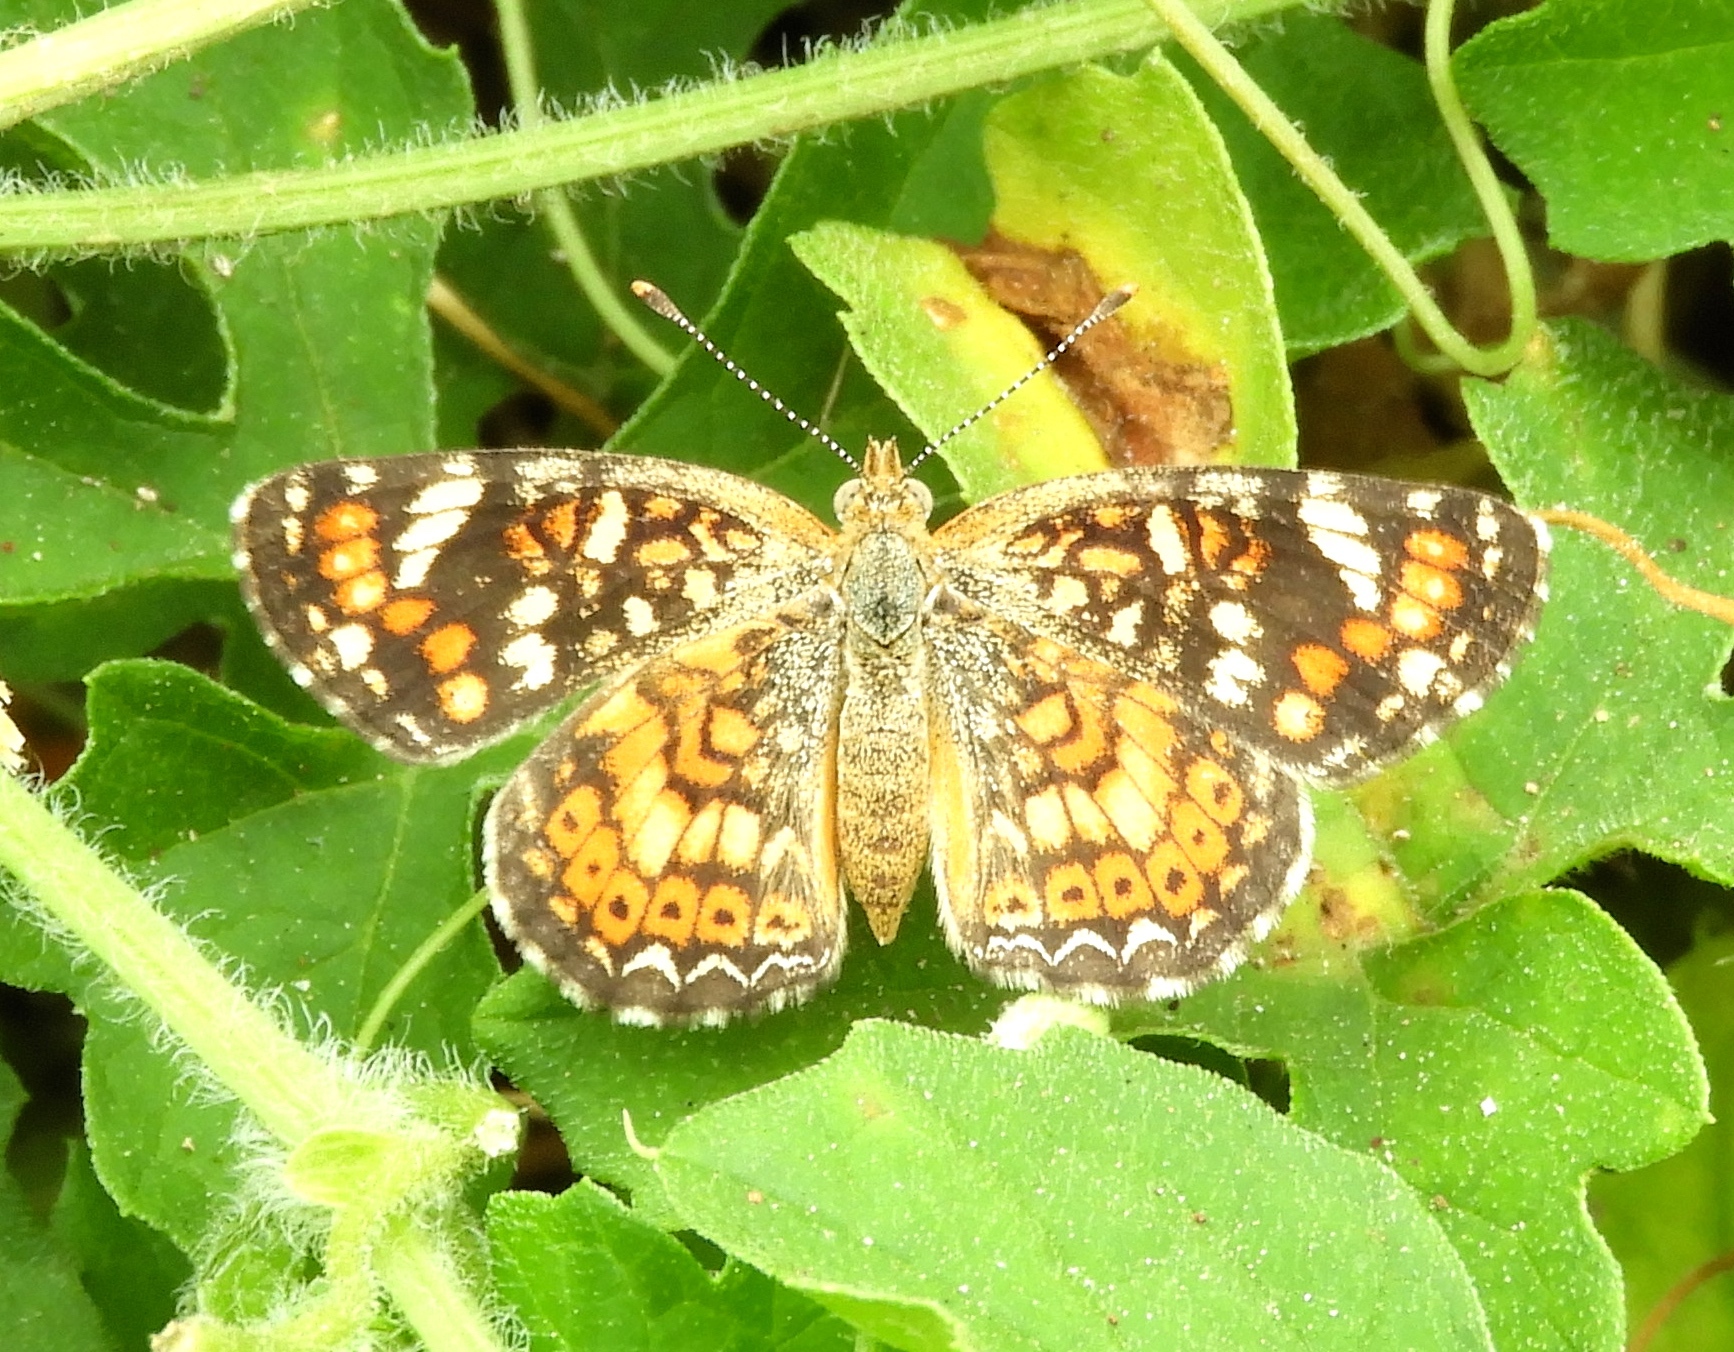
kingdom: Animalia
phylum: Arthropoda
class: Insecta
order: Lepidoptera
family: Nymphalidae
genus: Phyciodes
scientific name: Phyciodes picta
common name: Painted crescent
